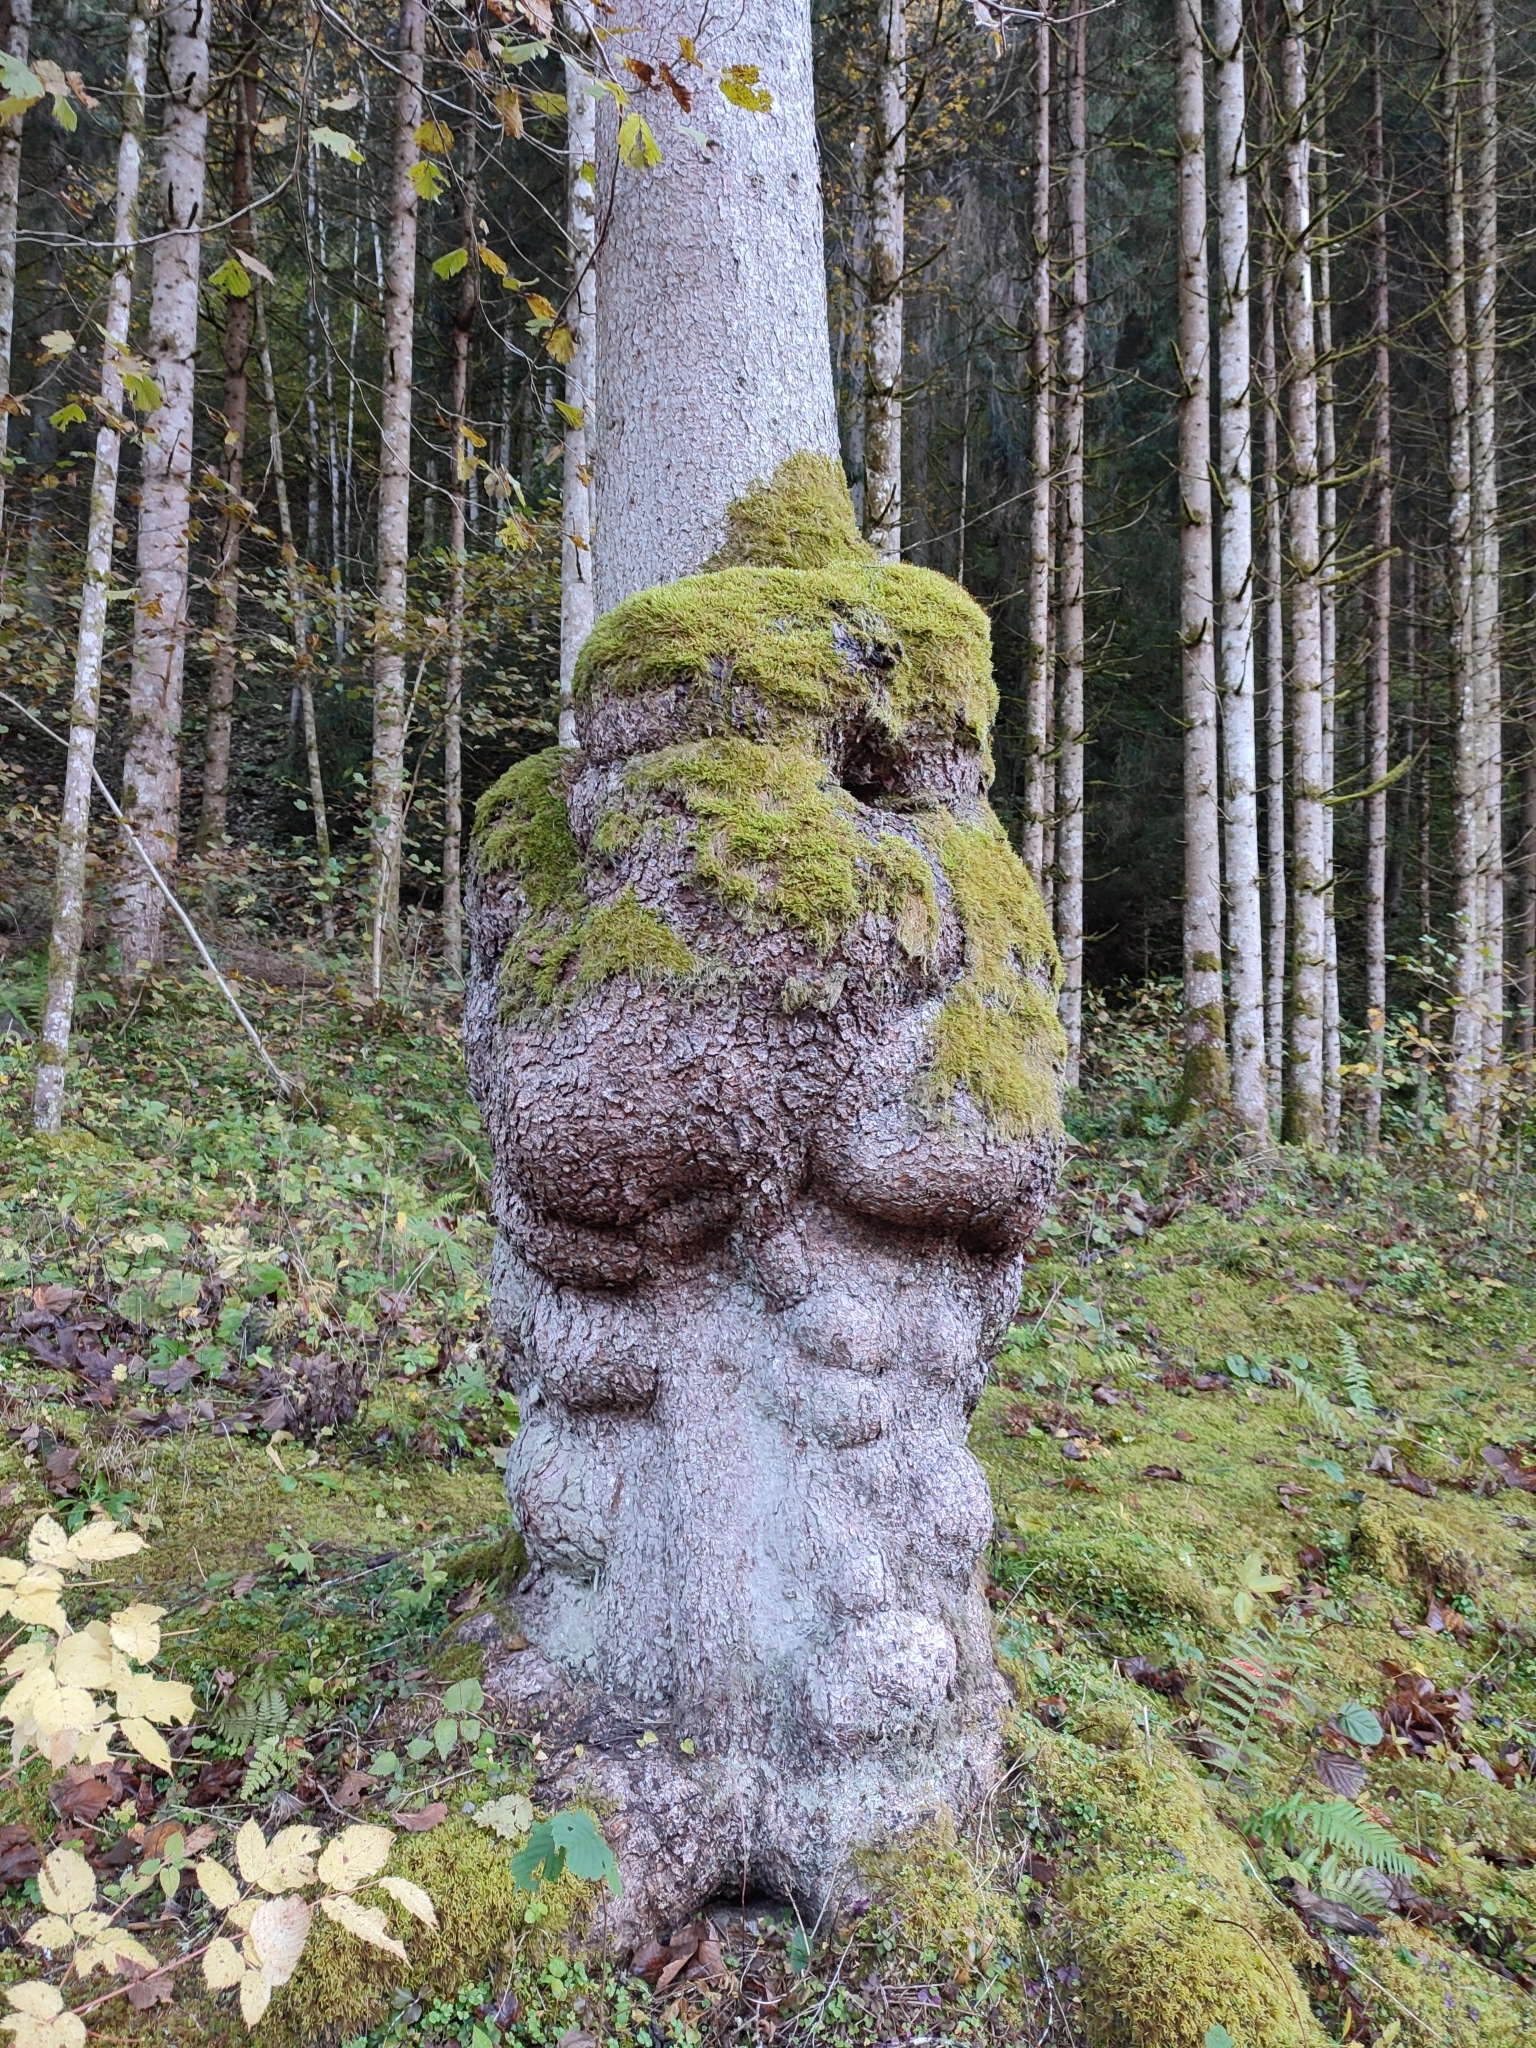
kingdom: Plantae
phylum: Tracheophyta
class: Pinopsida
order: Pinales
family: Pinaceae
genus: Picea
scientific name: Picea abies
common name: Norway spruce
